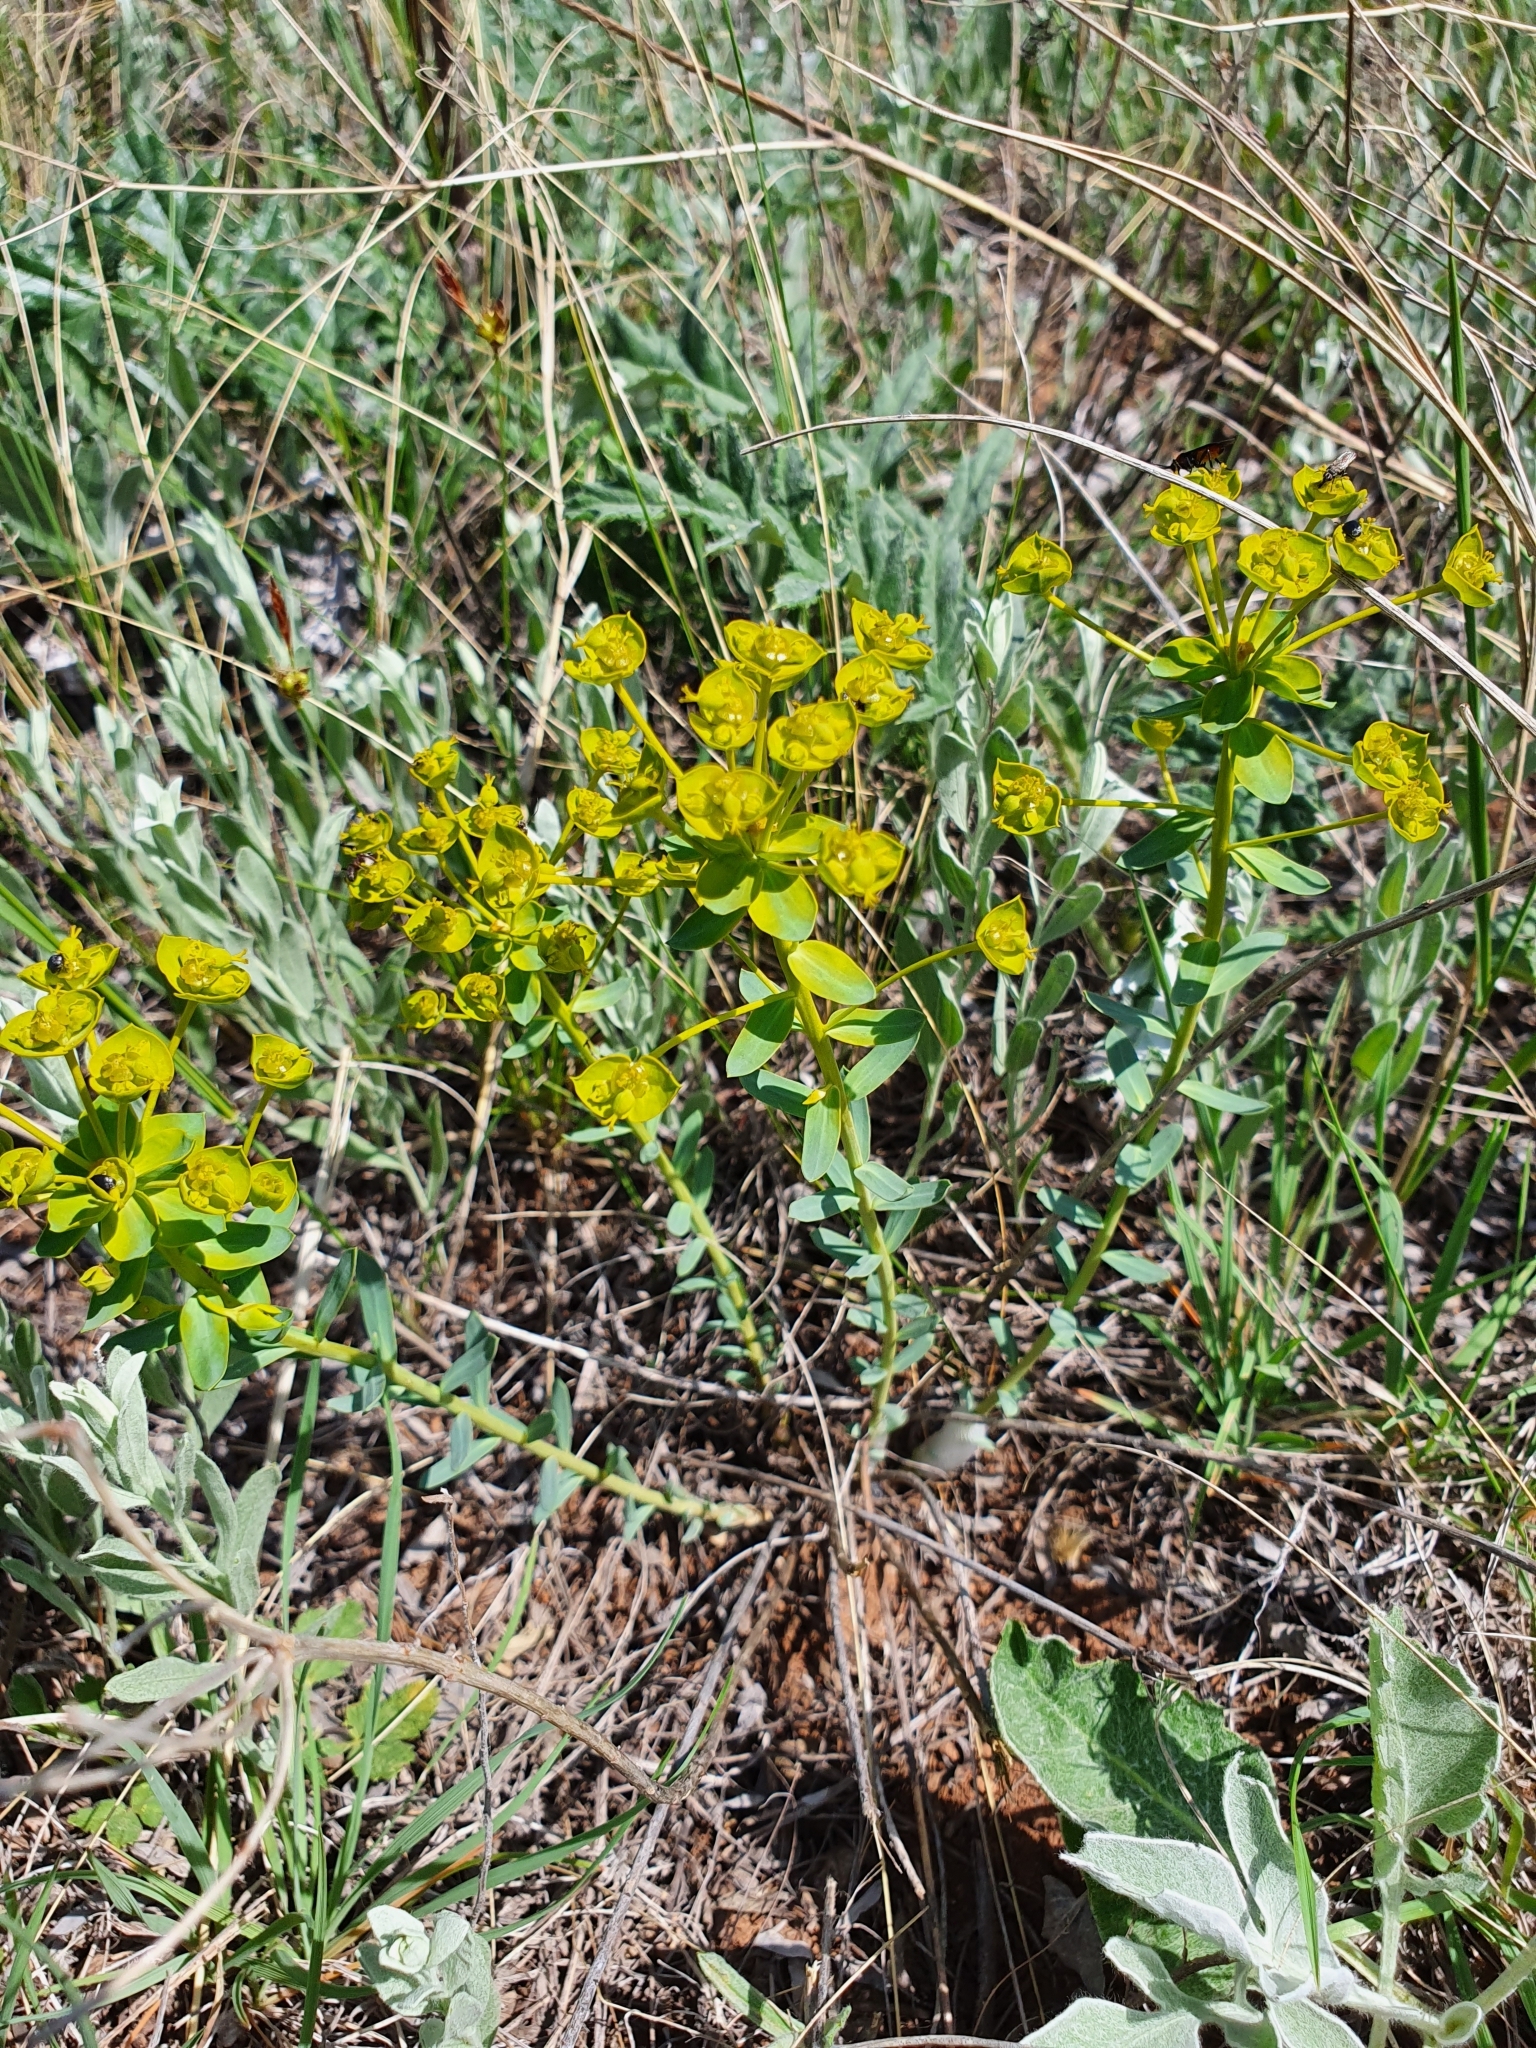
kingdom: Plantae
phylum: Tracheophyta
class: Magnoliopsida
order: Malpighiales
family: Euphorbiaceae
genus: Euphorbia
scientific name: Euphorbia seguieriana
